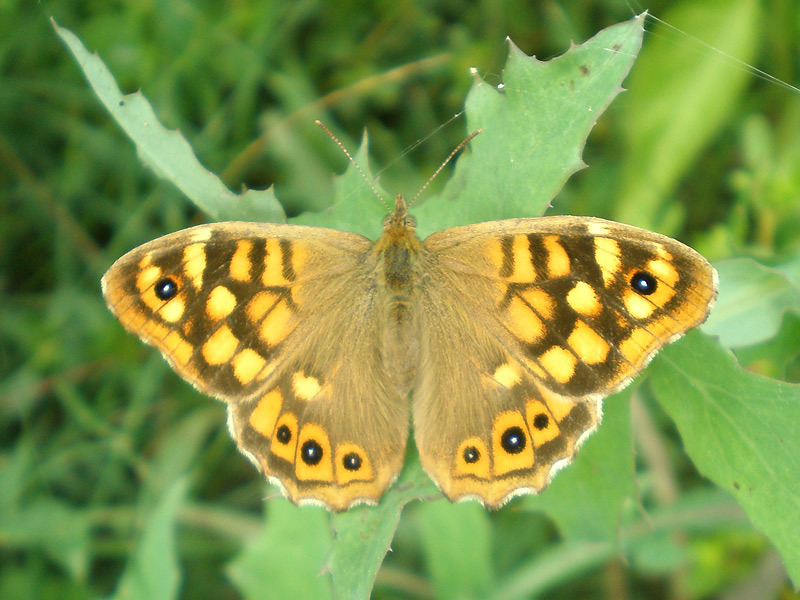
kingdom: Animalia
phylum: Arthropoda
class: Insecta
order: Lepidoptera
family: Nymphalidae
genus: Pararge
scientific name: Pararge aegeria
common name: Speckled wood
